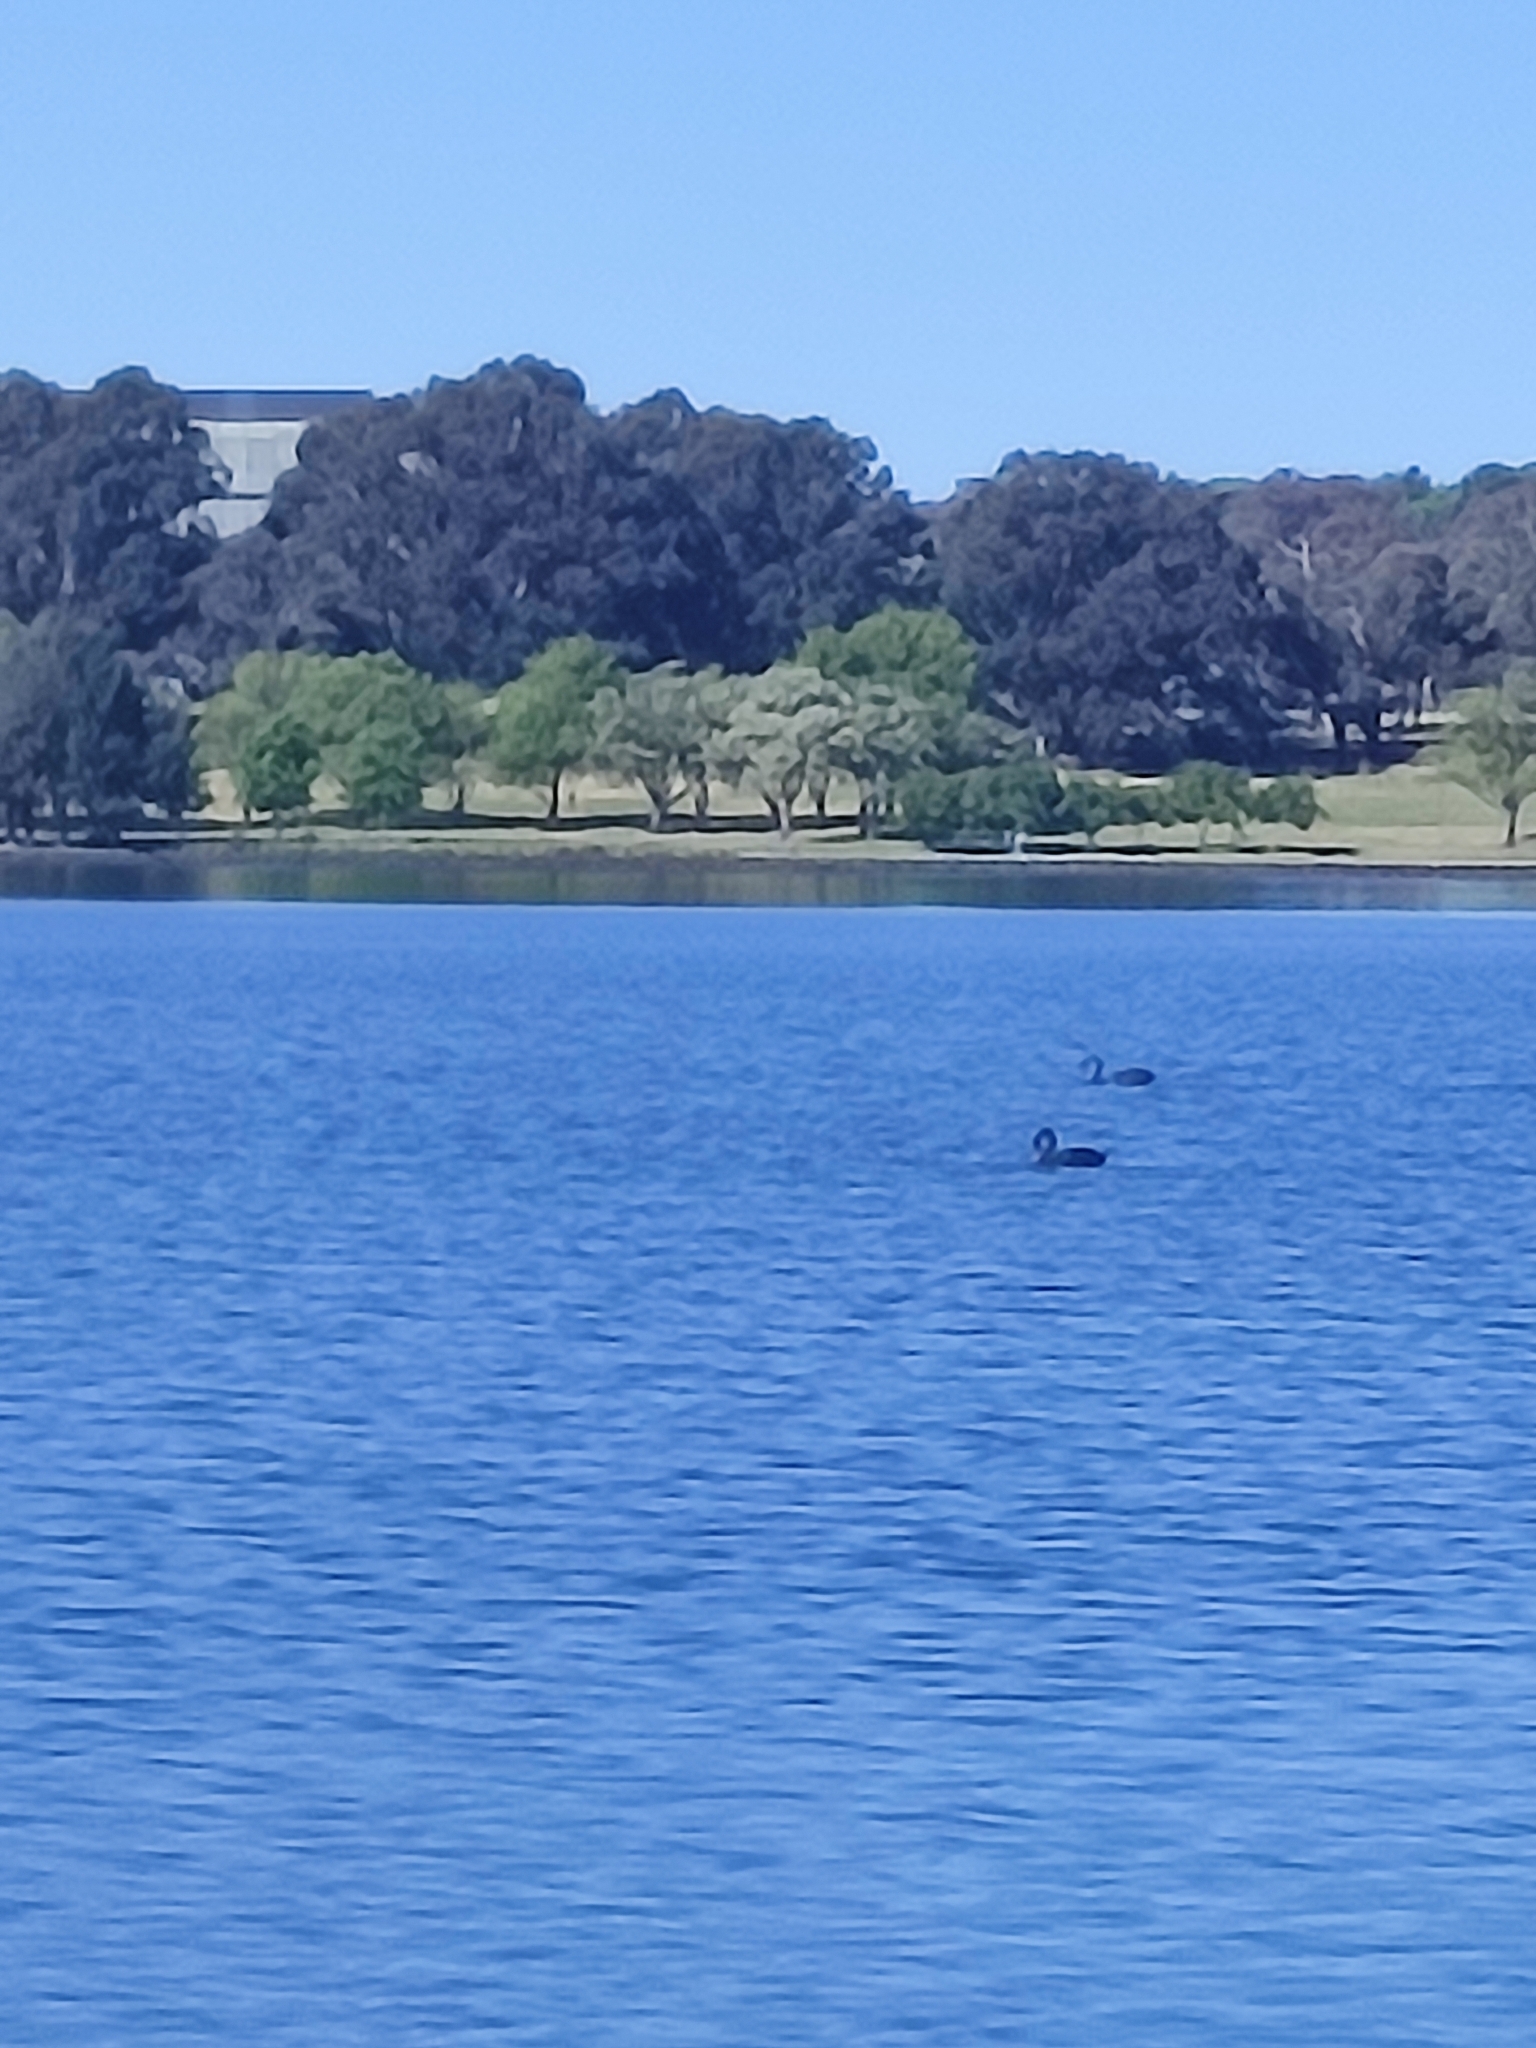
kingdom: Animalia
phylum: Chordata
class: Aves
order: Anseriformes
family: Anatidae
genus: Cygnus
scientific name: Cygnus atratus
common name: Black swan
